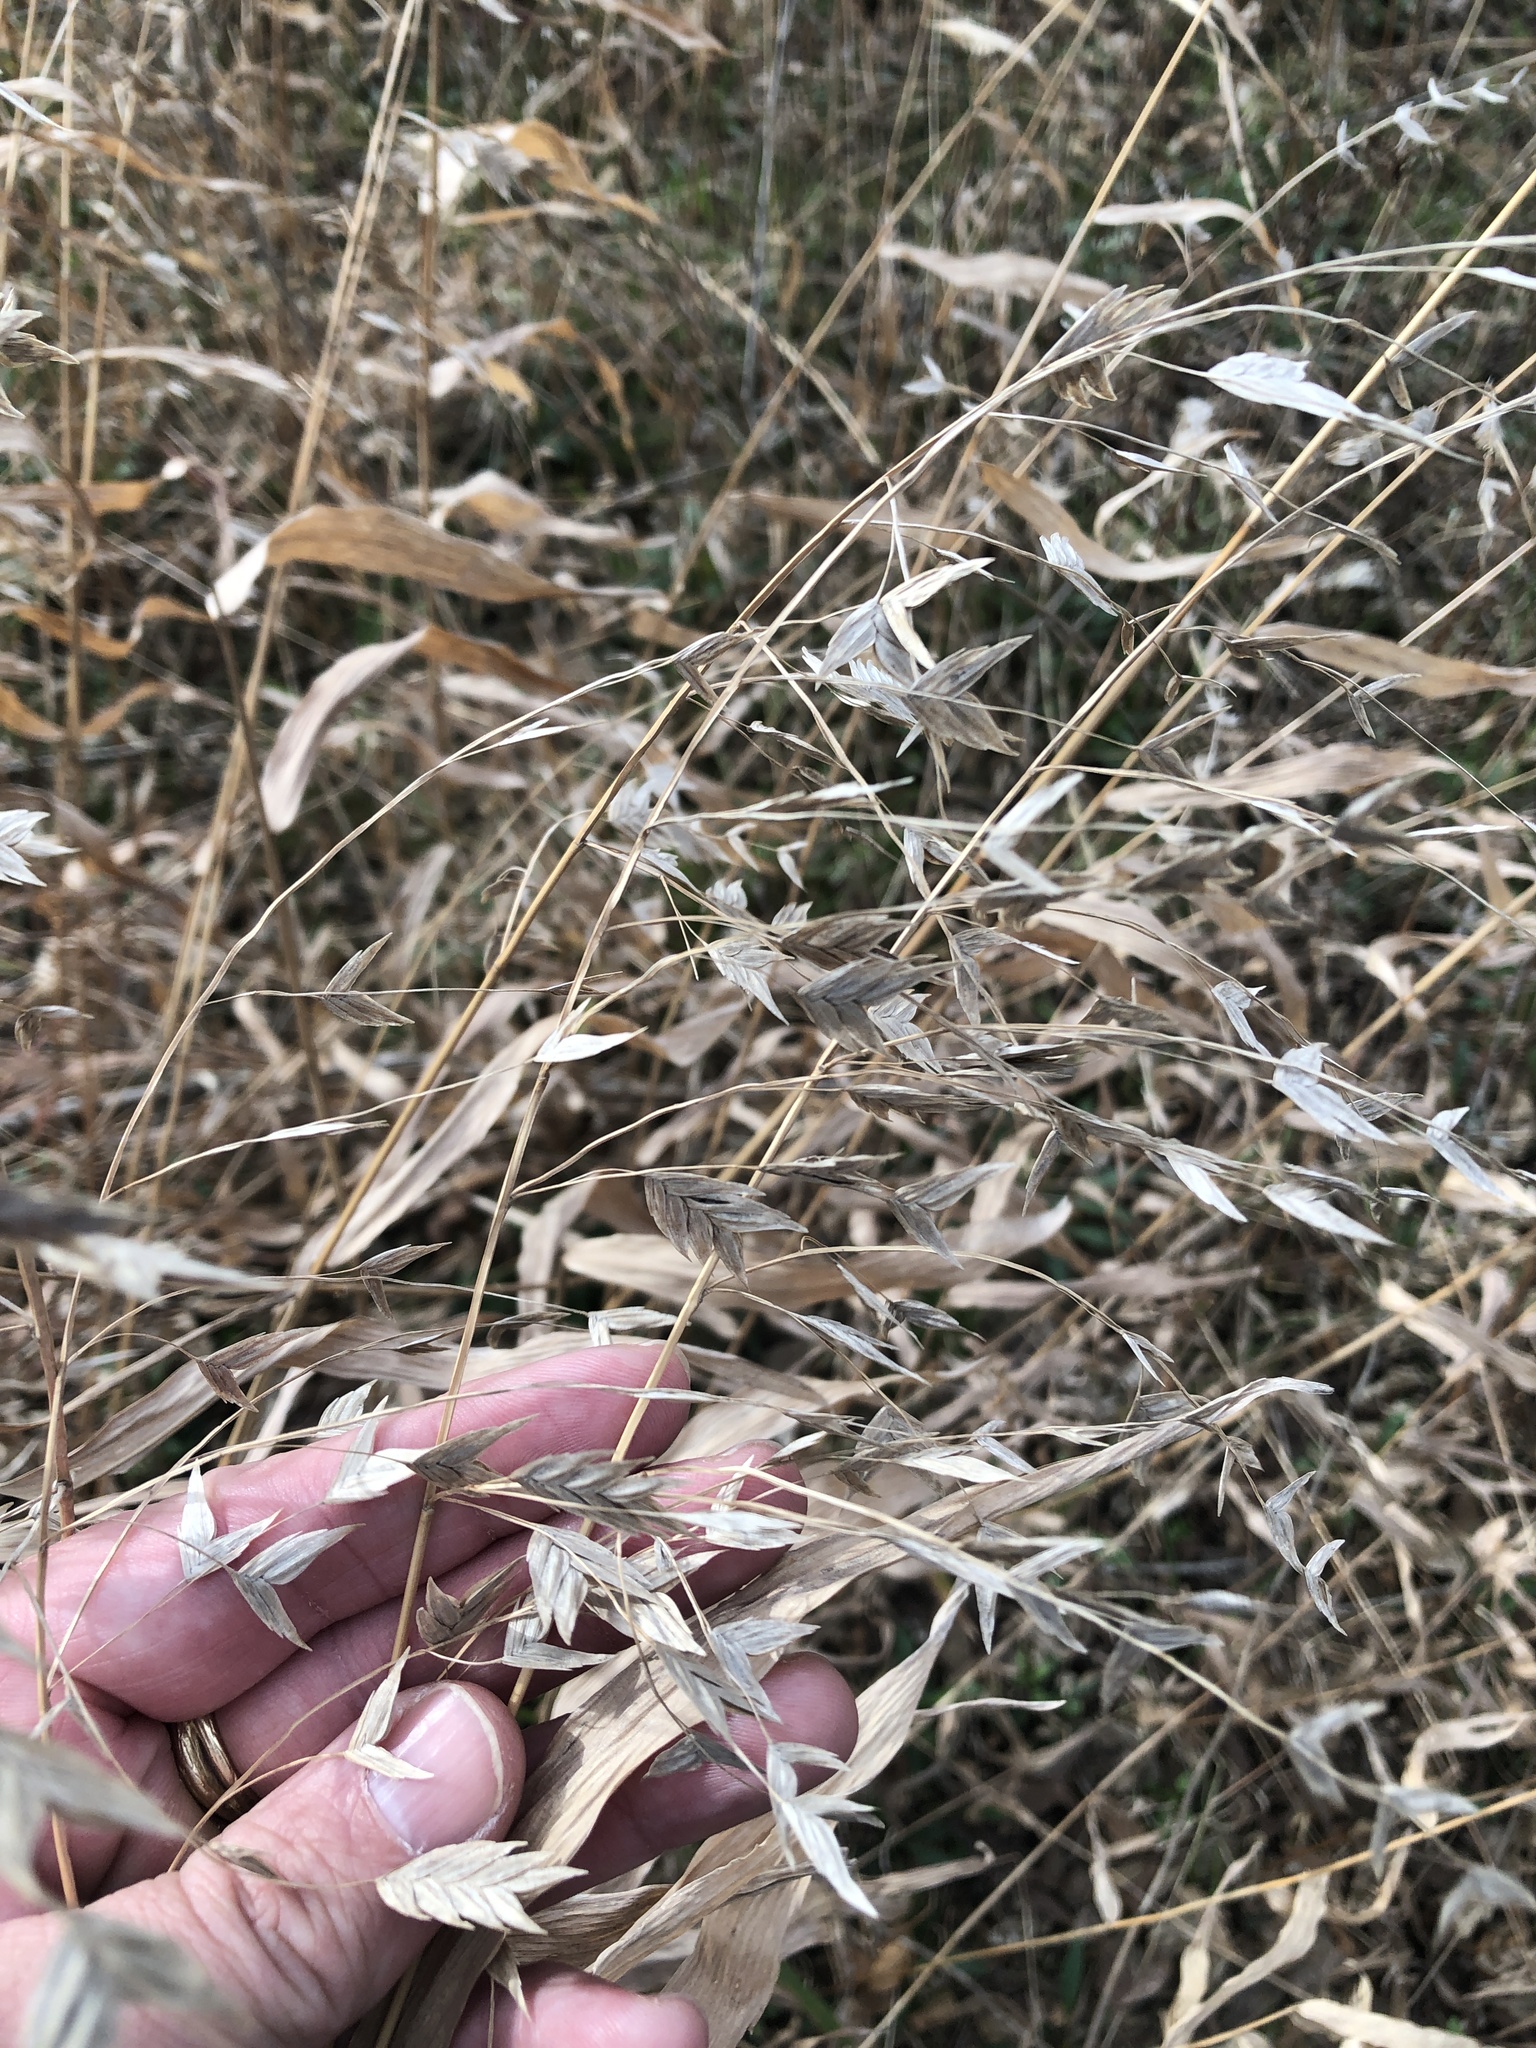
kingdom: Plantae
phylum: Tracheophyta
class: Liliopsida
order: Poales
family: Poaceae
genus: Chasmanthium
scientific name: Chasmanthium latifolium
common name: Broad-leaved chasmanthium
